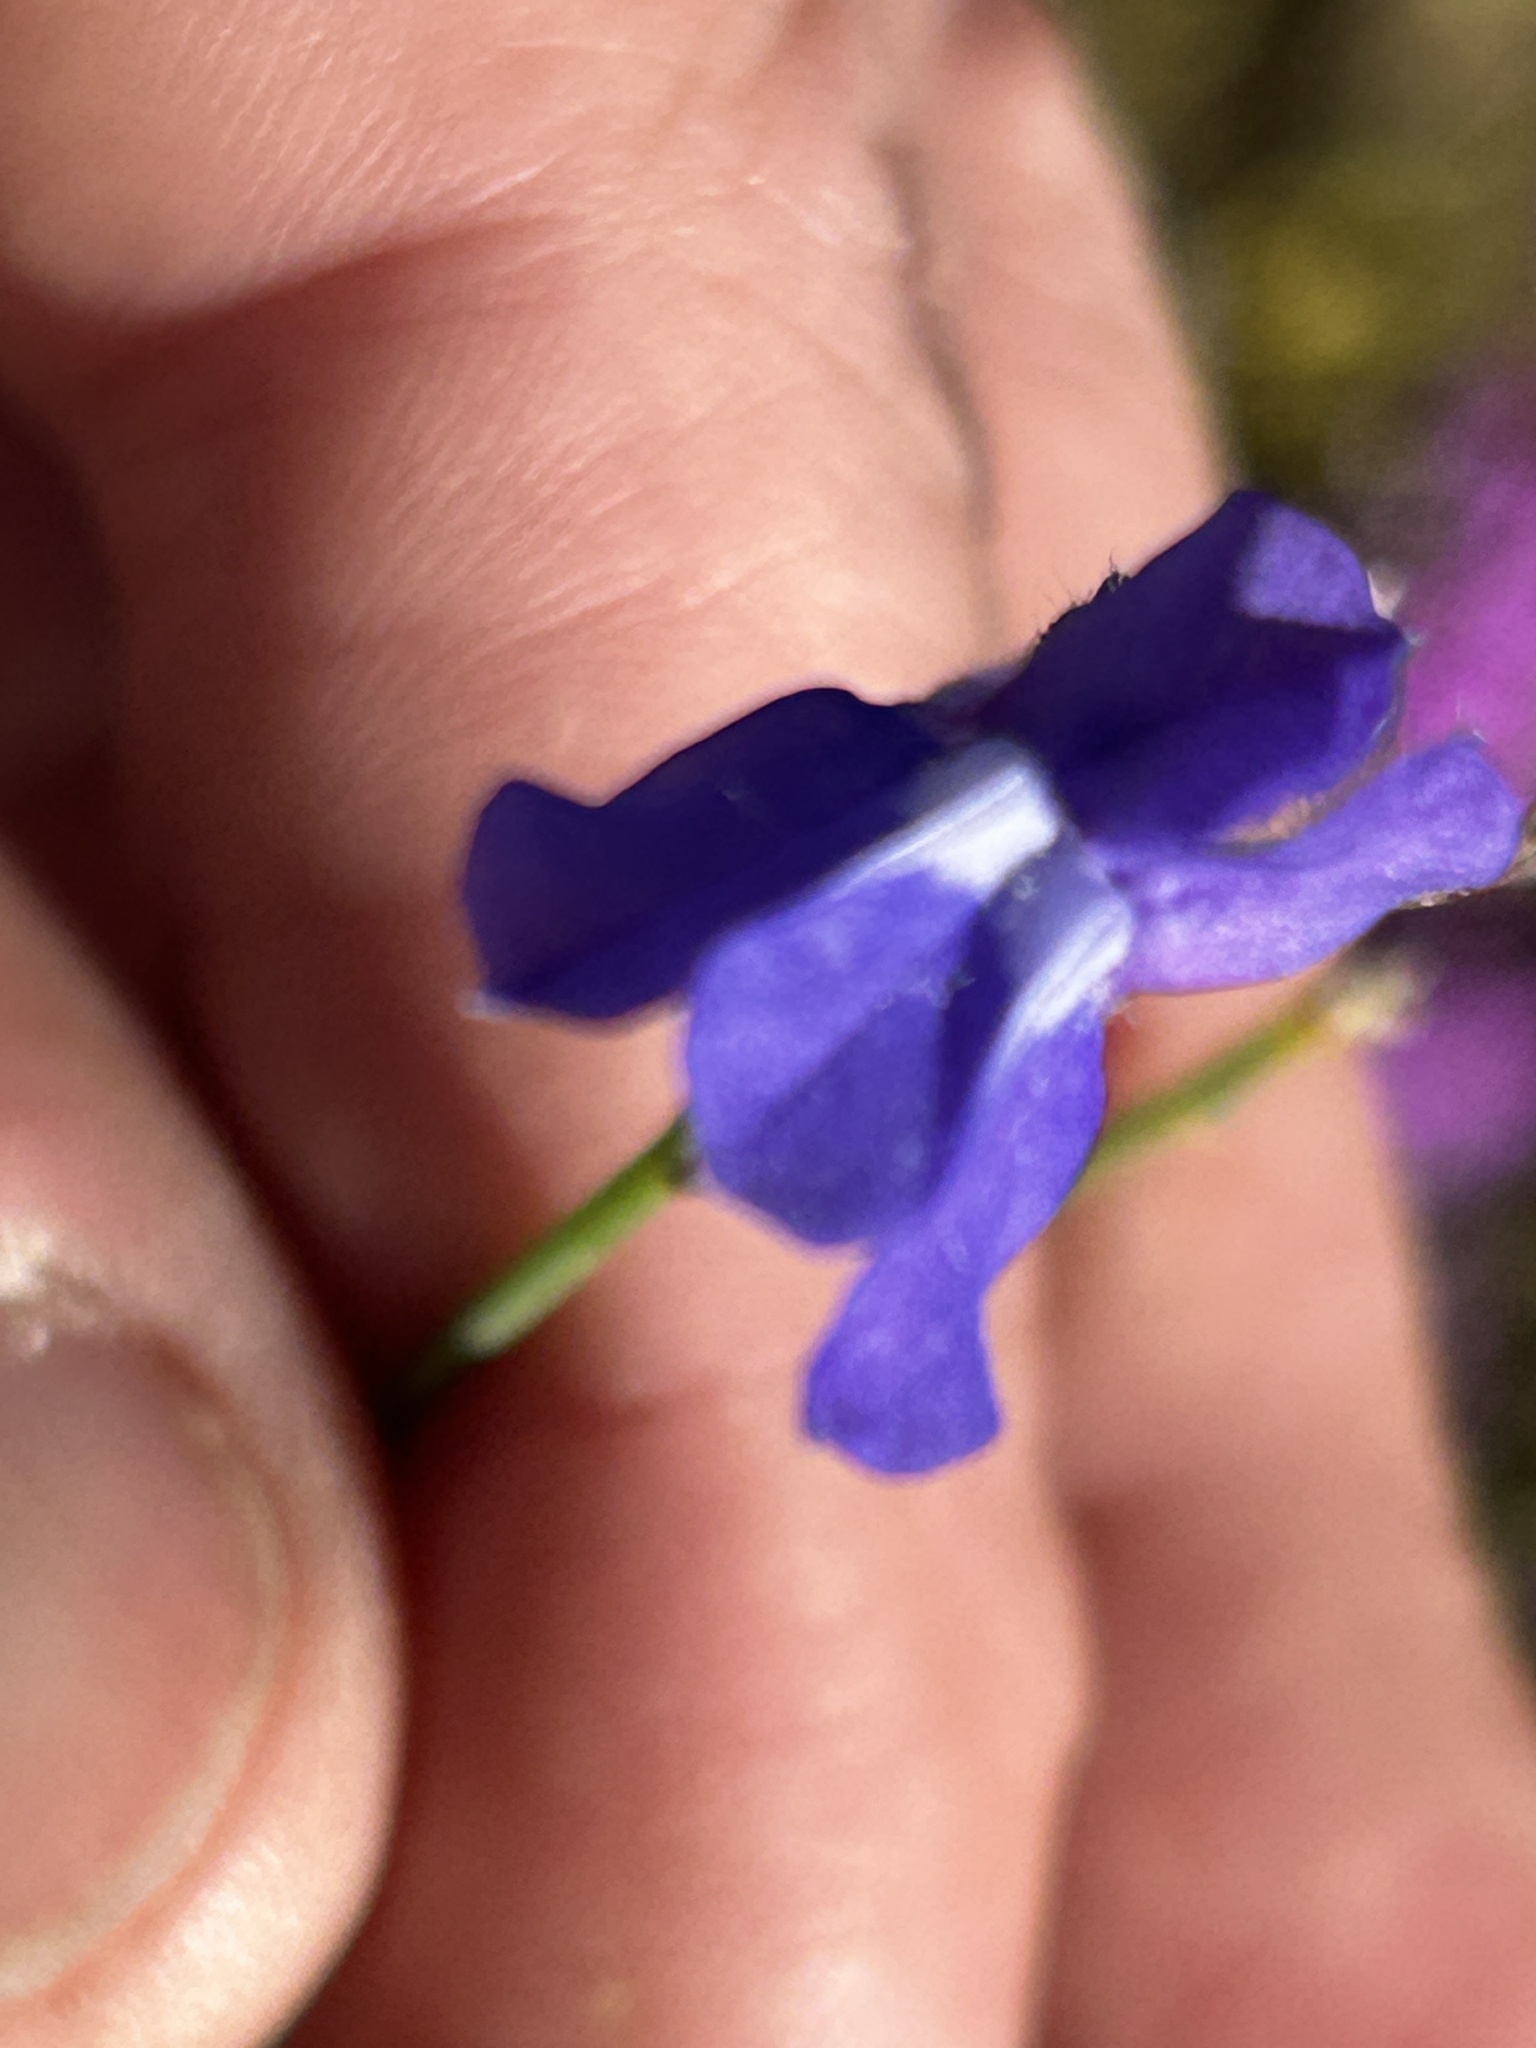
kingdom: Plantae
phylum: Tracheophyta
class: Magnoliopsida
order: Asterales
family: Campanulaceae
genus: Lobelia
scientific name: Lobelia linearis
